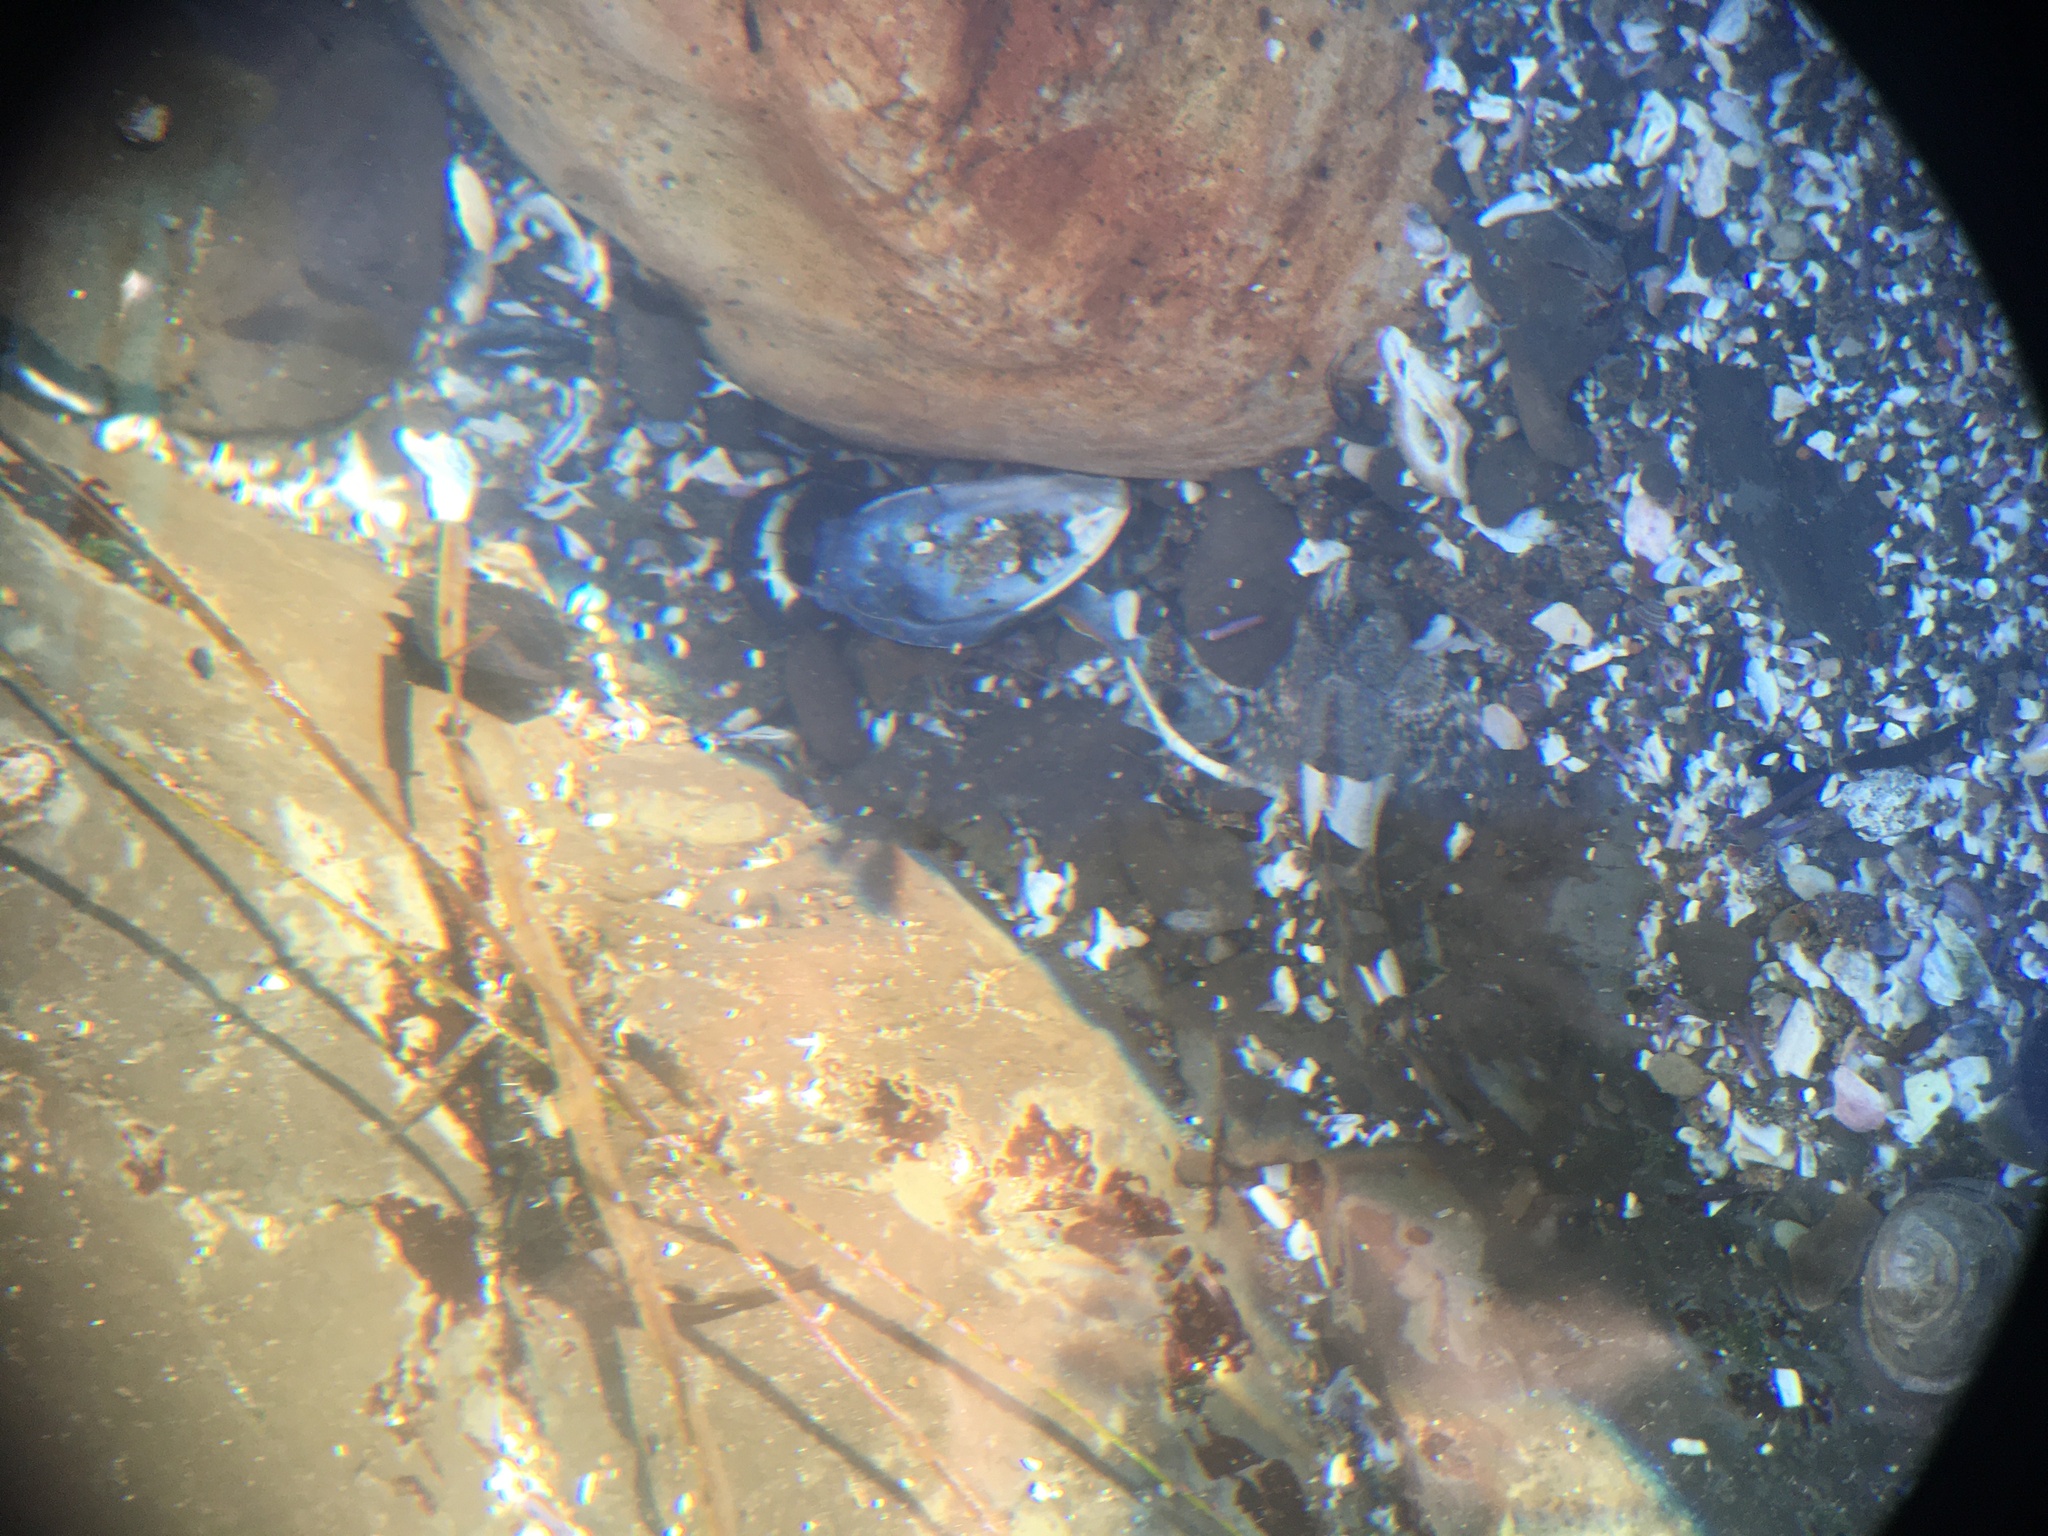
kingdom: Animalia
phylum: Chordata
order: Scorpaeniformes
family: Cottidae
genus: Clinocottus
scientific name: Clinocottus globiceps
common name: Mosshead sculpin
